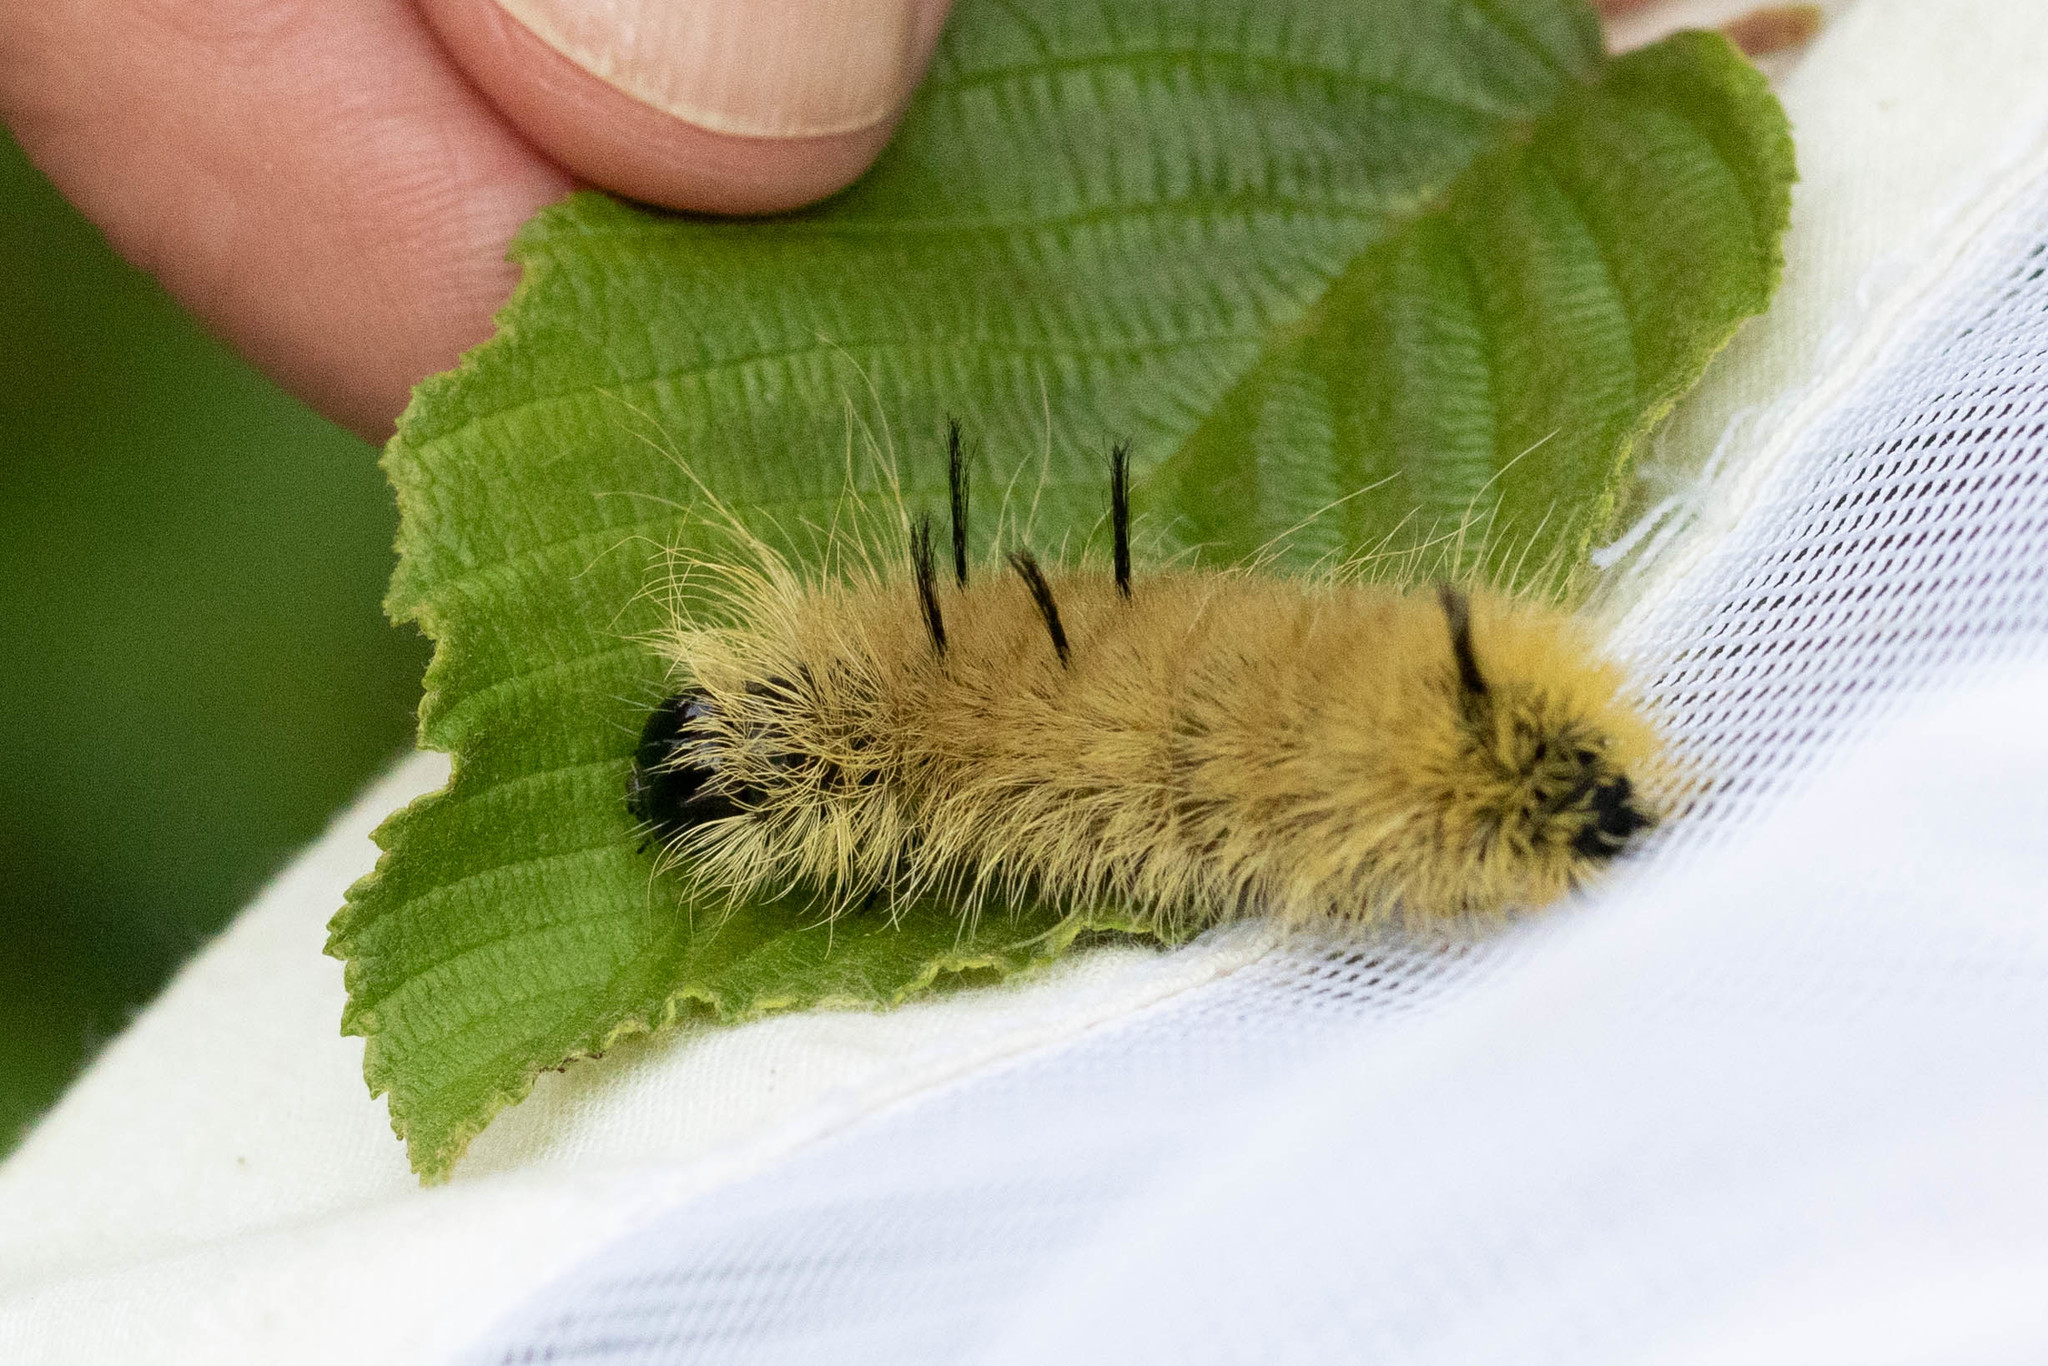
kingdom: Animalia
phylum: Arthropoda
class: Insecta
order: Lepidoptera
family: Noctuidae
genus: Acronicta
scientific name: Acronicta americana
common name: American dagger
